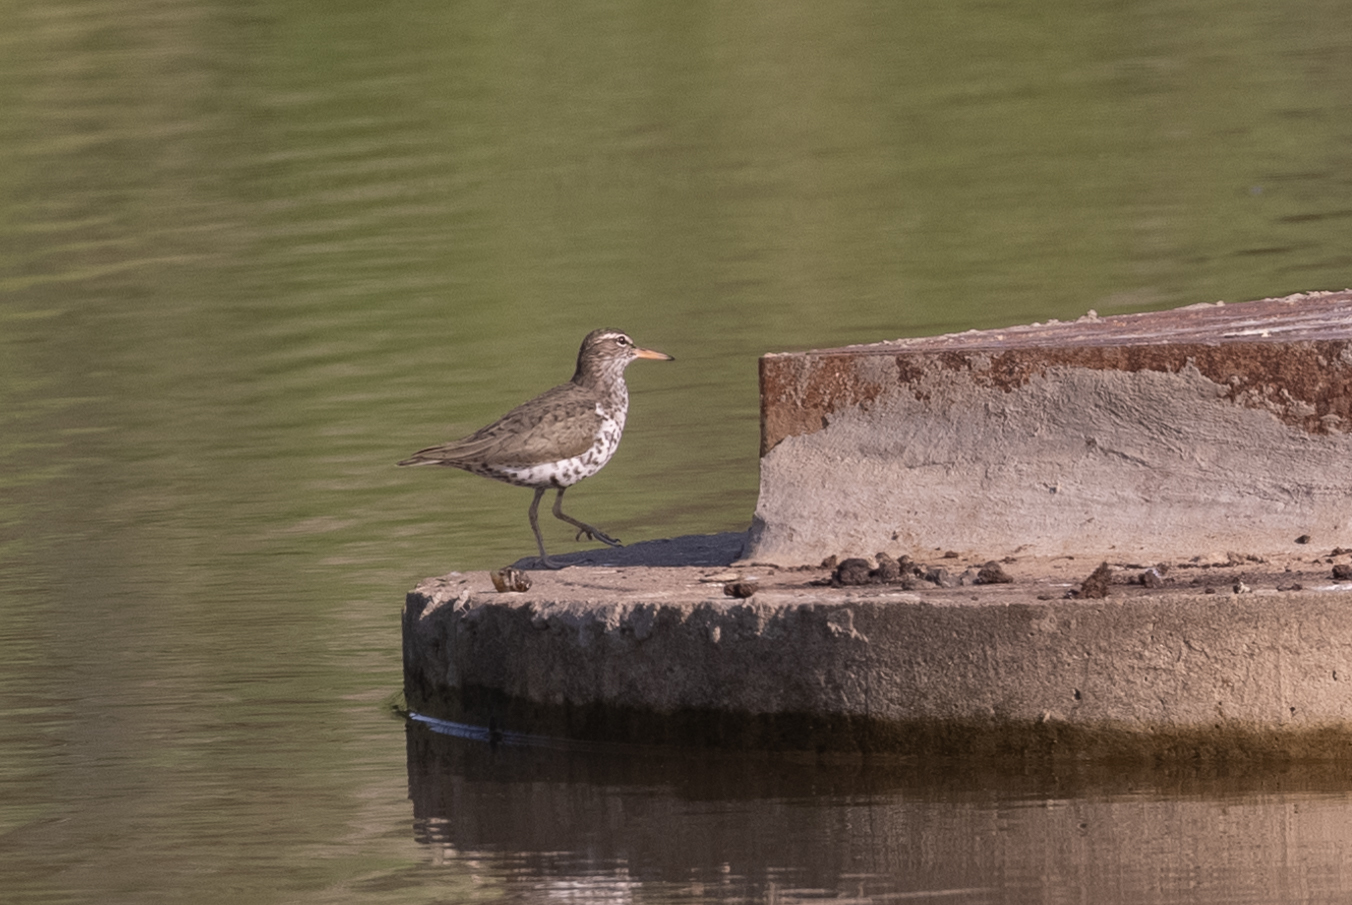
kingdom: Animalia
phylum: Chordata
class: Aves
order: Charadriiformes
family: Scolopacidae
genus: Actitis
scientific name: Actitis macularius
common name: Spotted sandpiper
